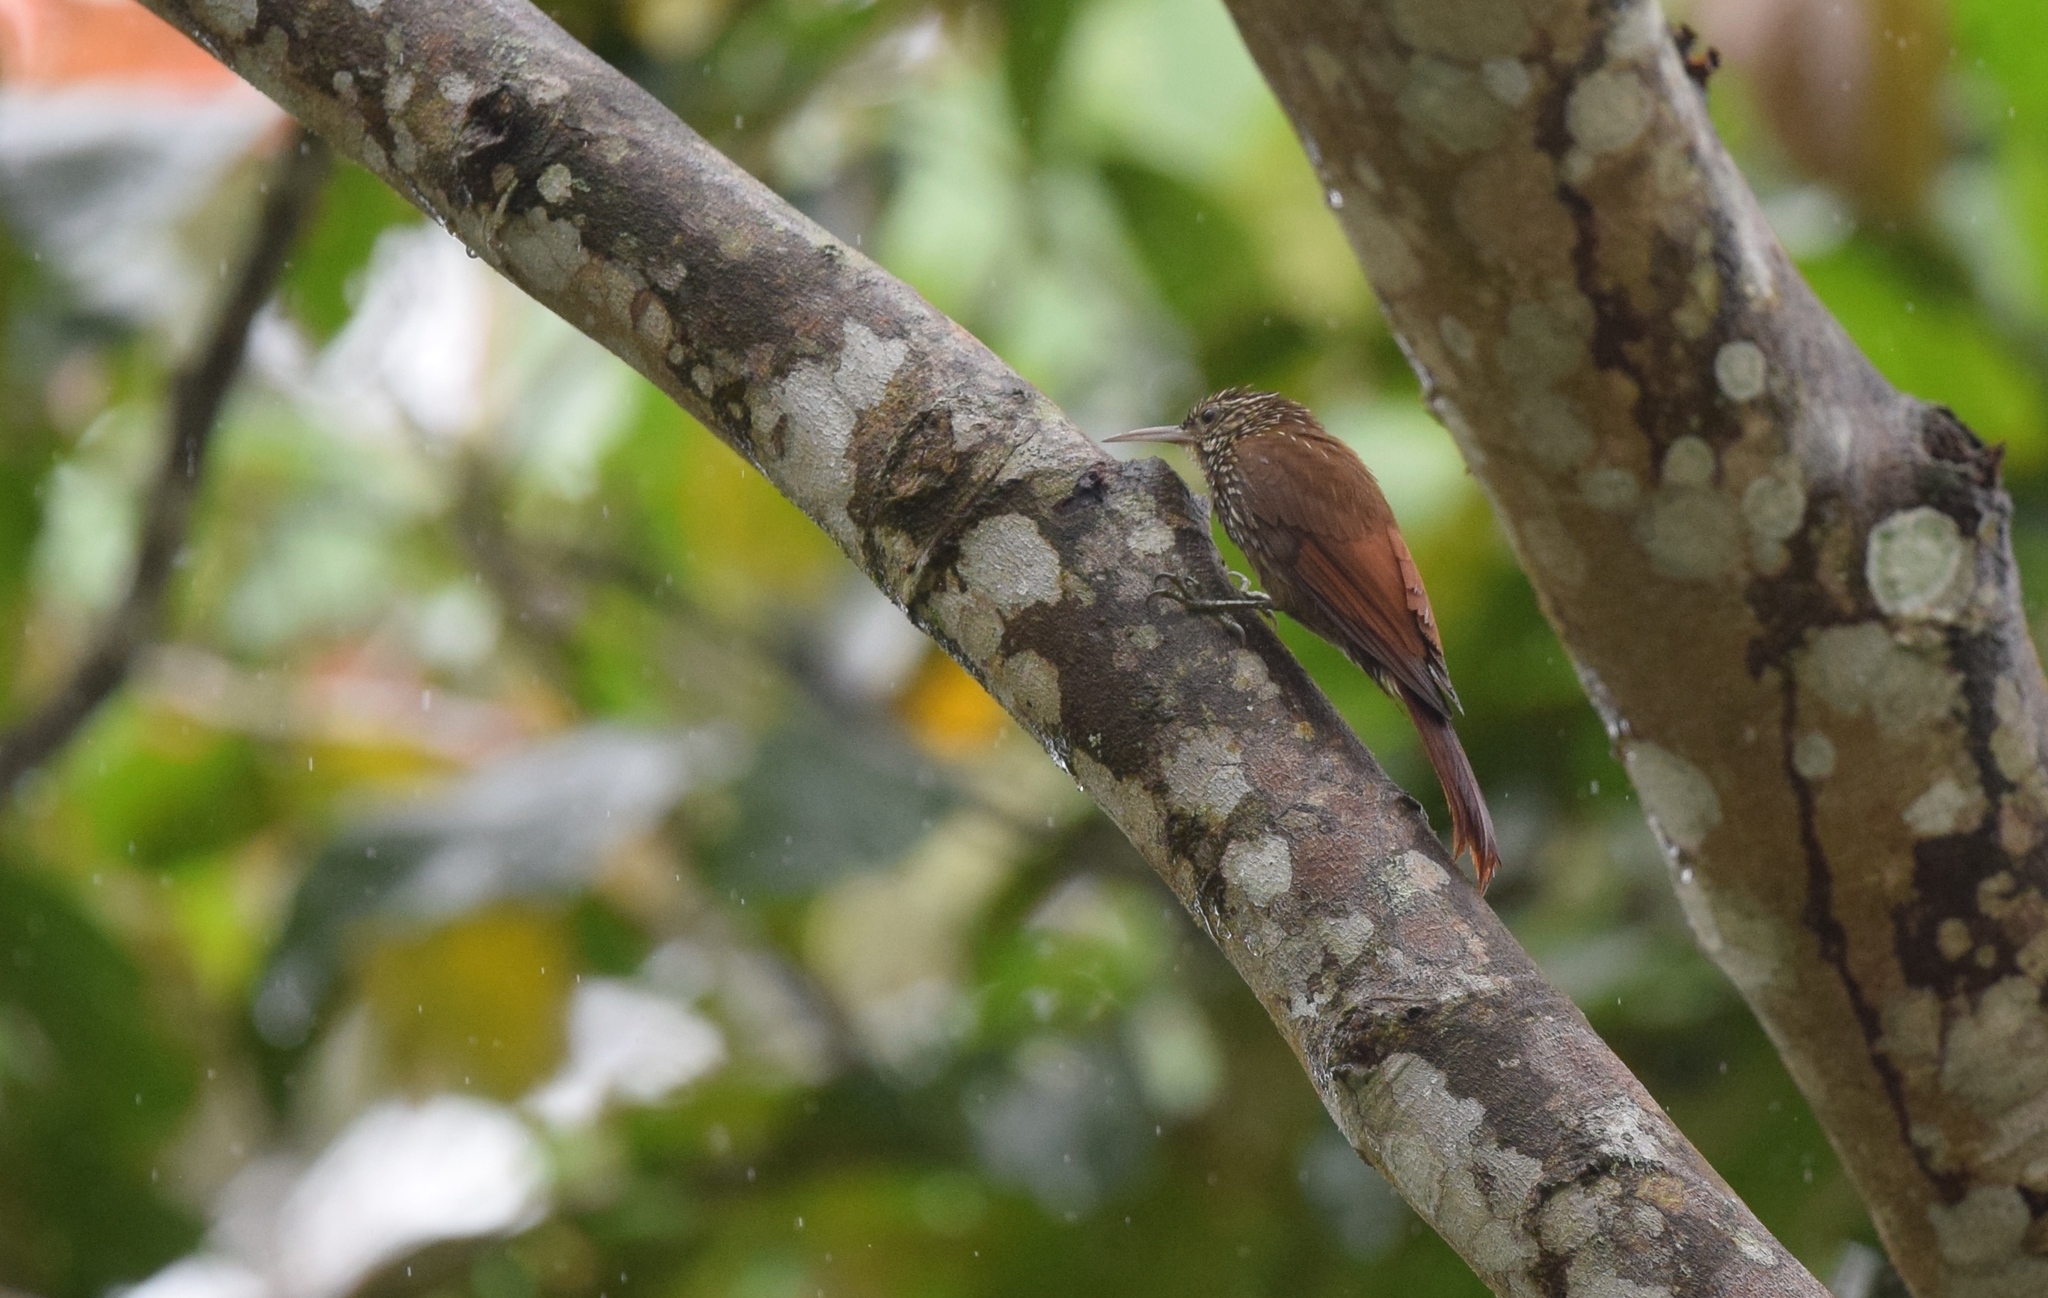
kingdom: Animalia
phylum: Chordata
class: Aves
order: Passeriformes
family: Furnariidae
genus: Lepidocolaptes
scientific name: Lepidocolaptes souleyetii
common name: Streak-headed woodcreeper
